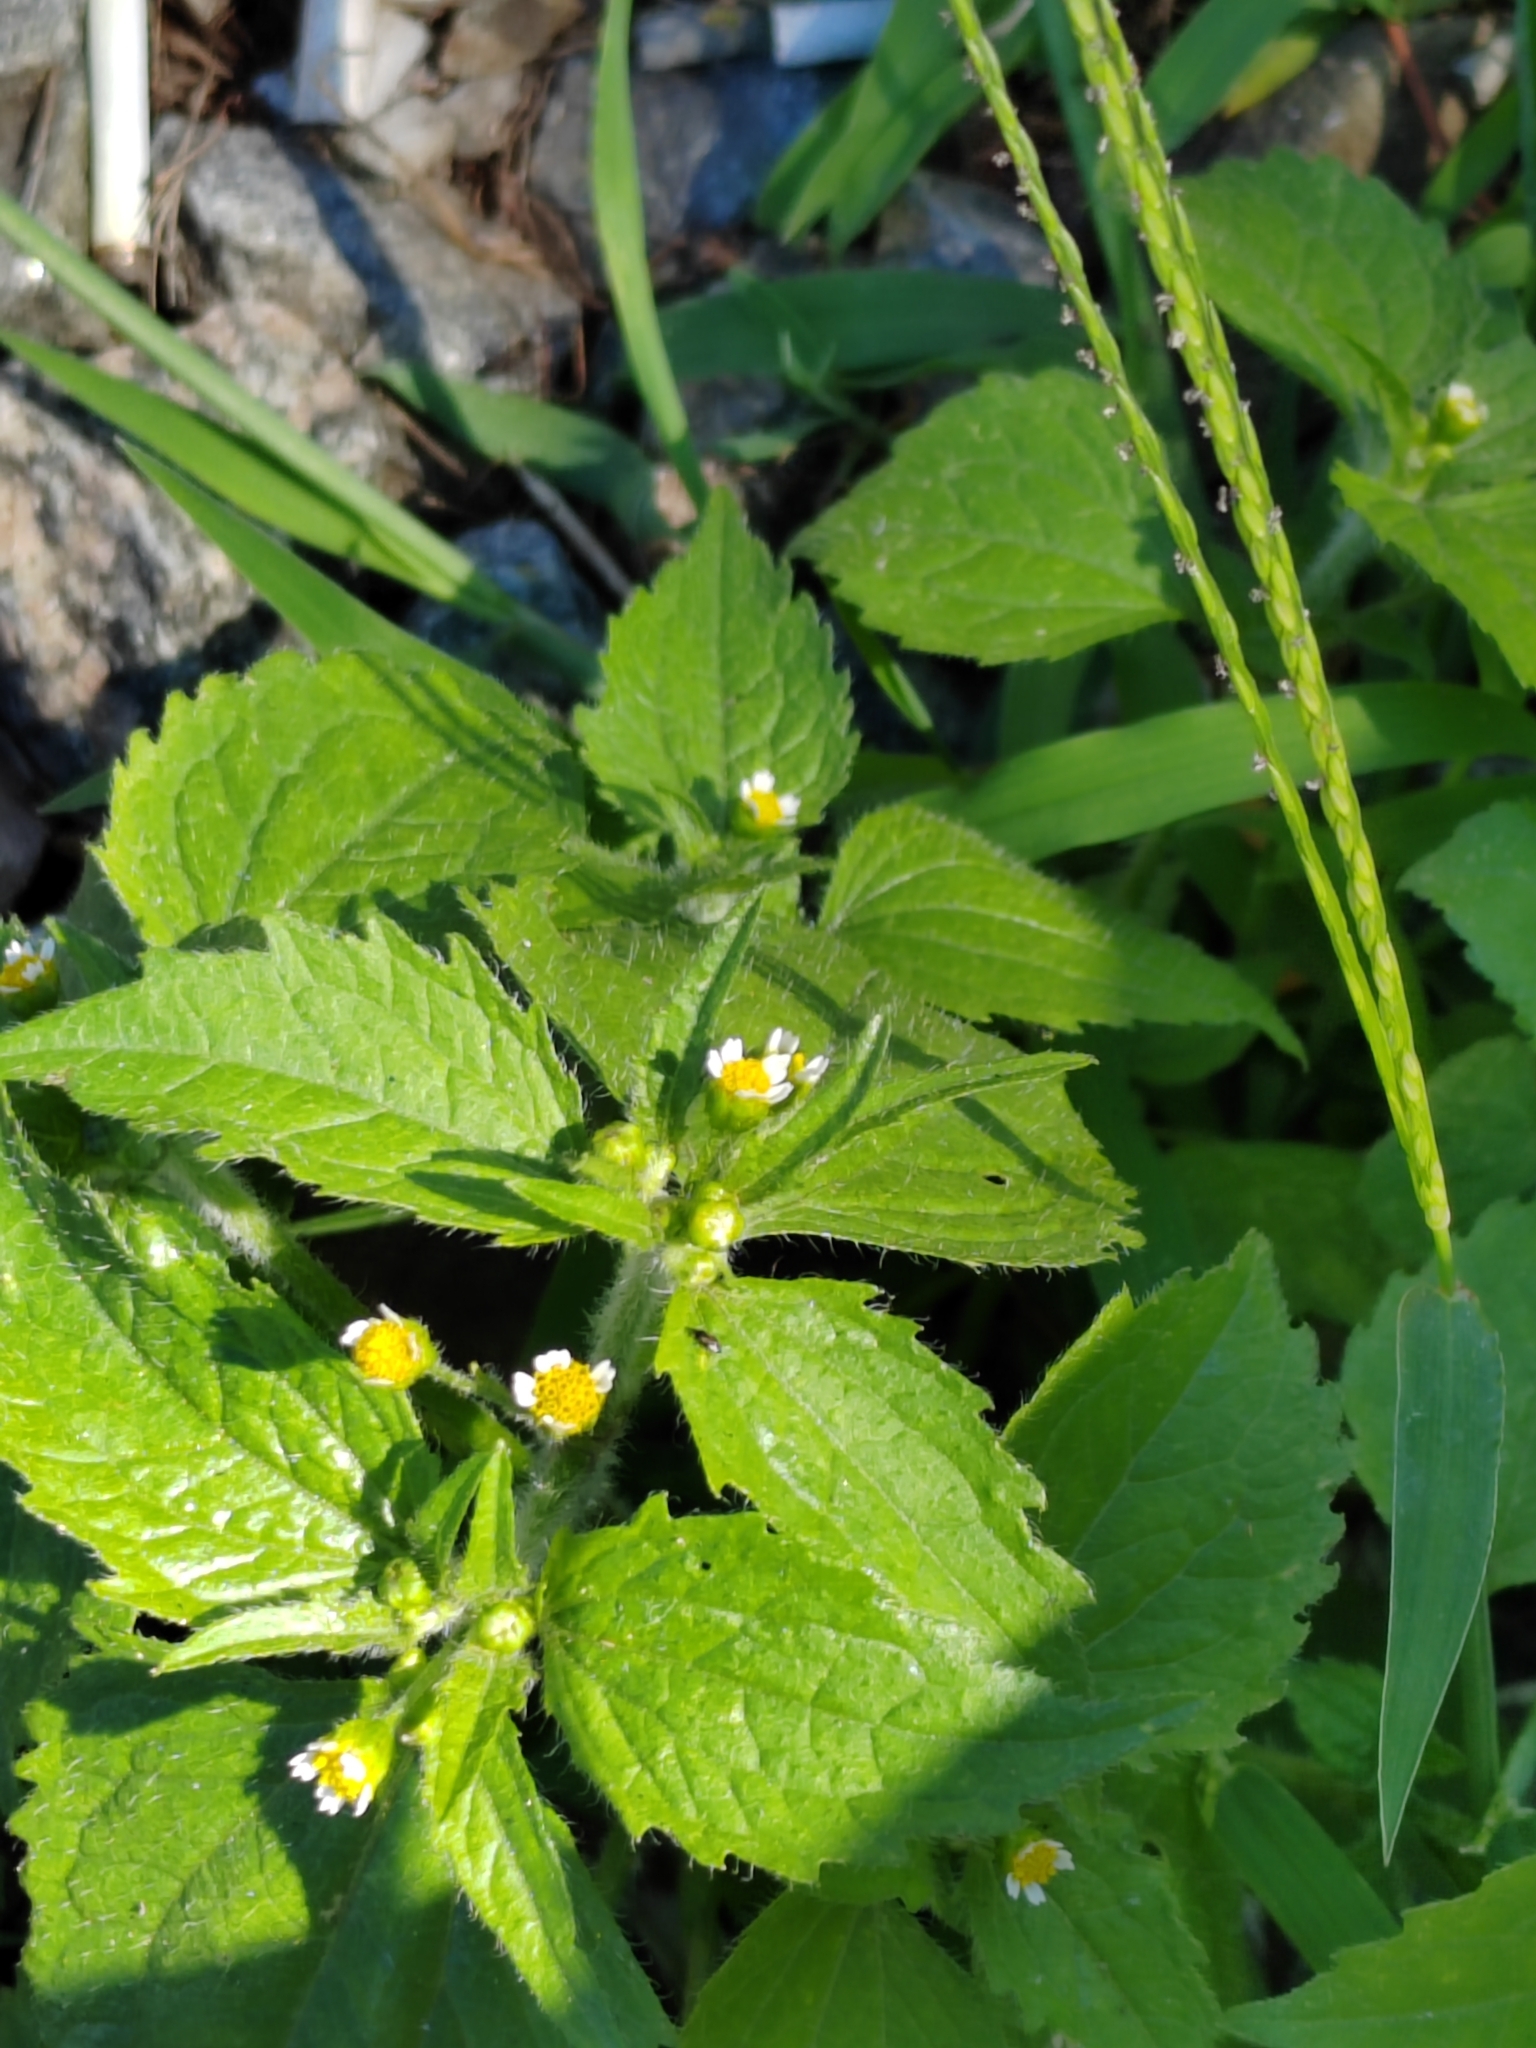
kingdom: Plantae
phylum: Tracheophyta
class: Magnoliopsida
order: Asterales
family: Asteraceae
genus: Galinsoga
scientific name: Galinsoga quadriradiata
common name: Shaggy soldier
